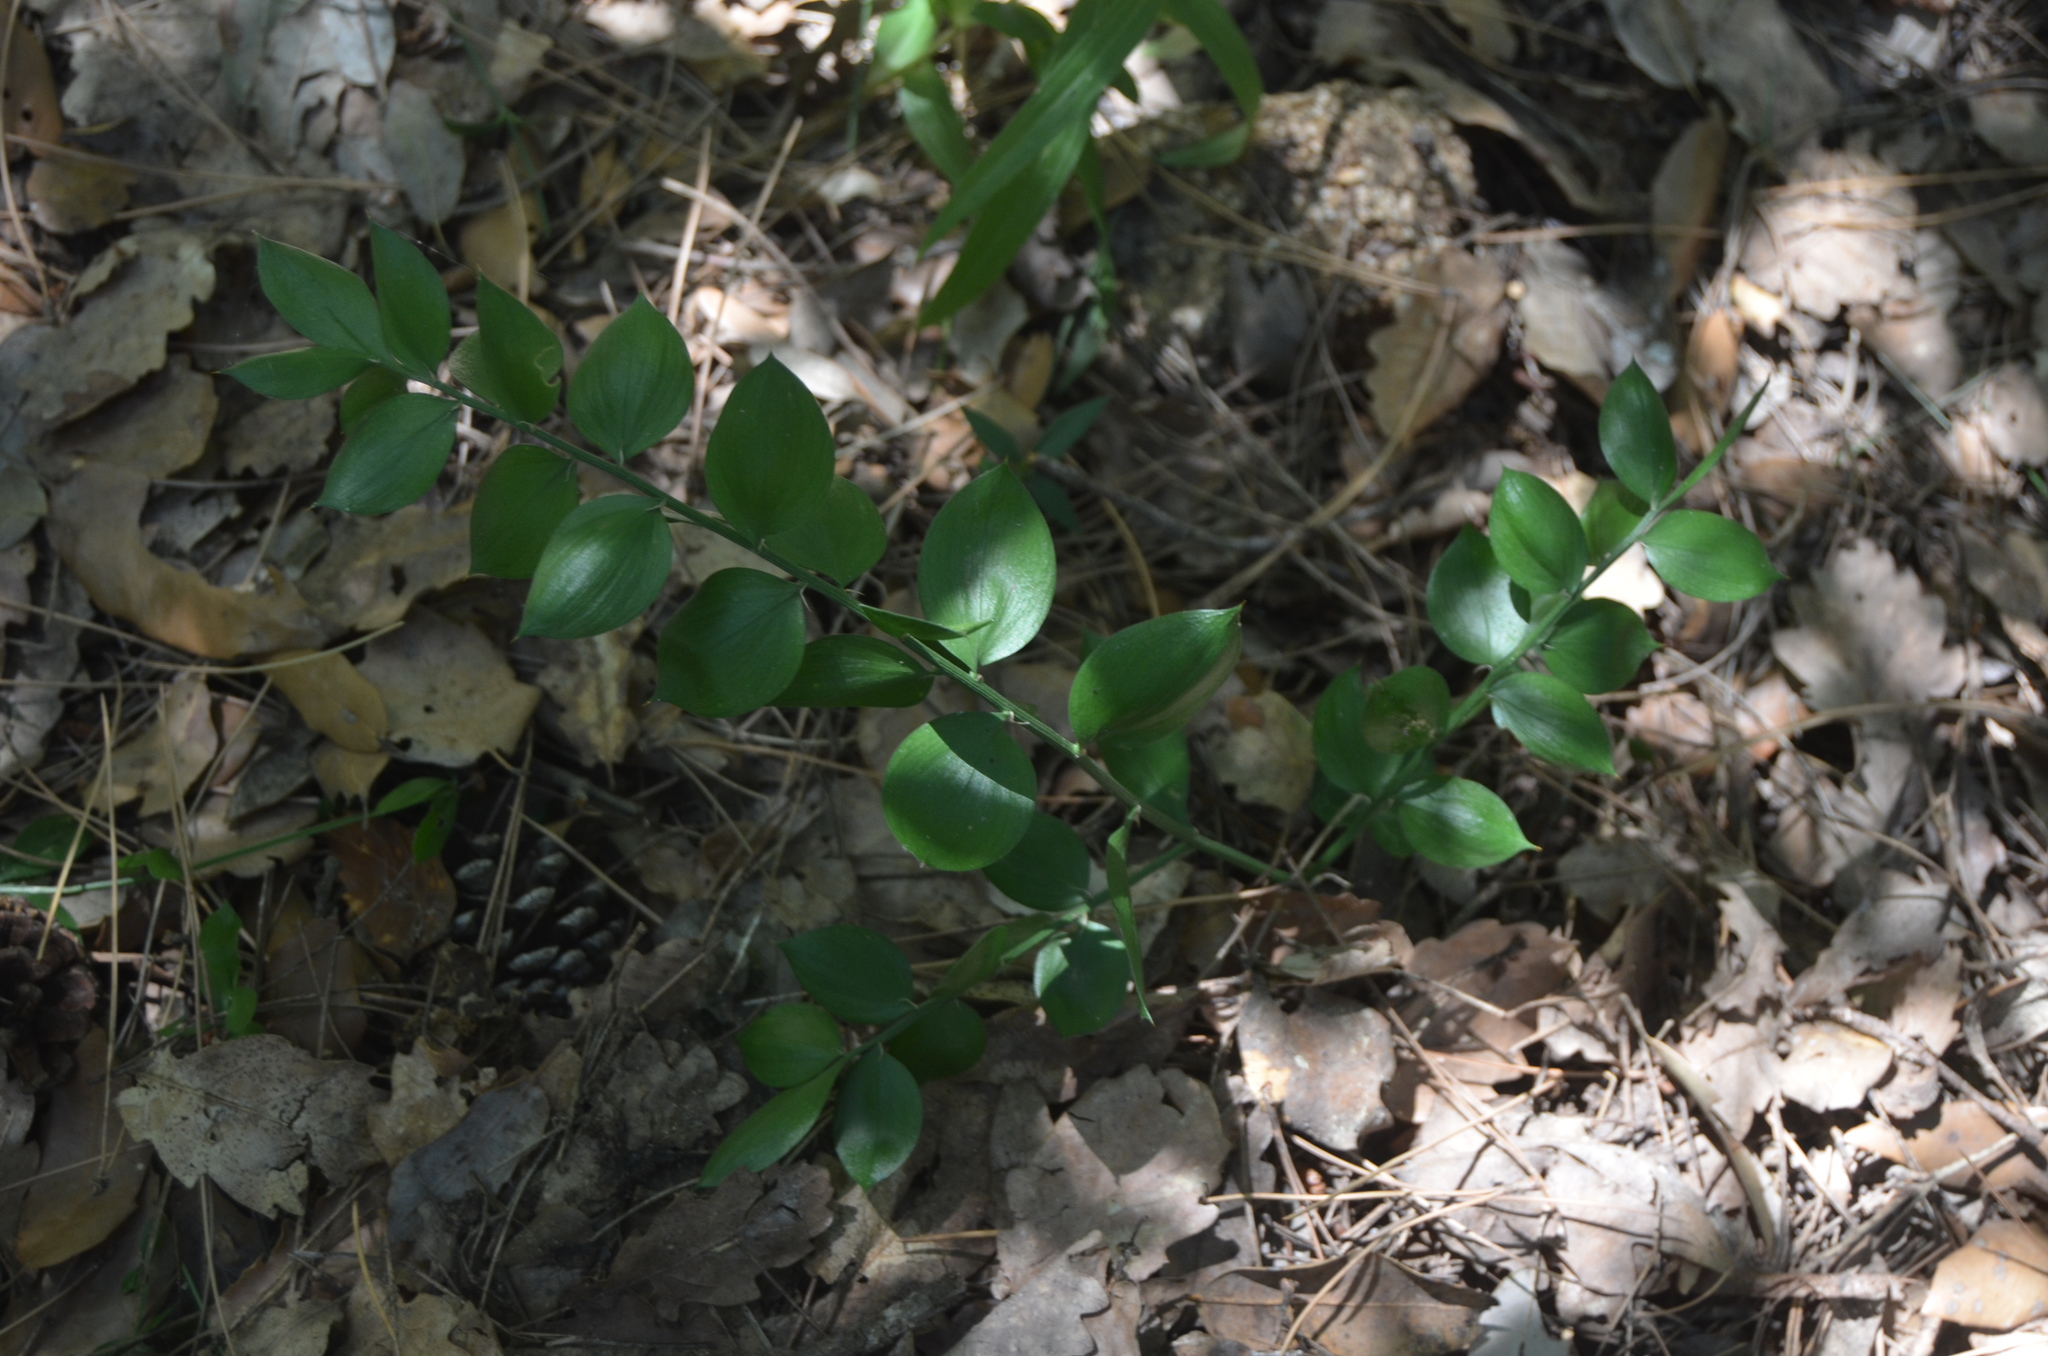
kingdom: Plantae
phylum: Tracheophyta
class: Liliopsida
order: Asparagales
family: Asparagaceae
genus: Ruscus
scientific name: Ruscus aculeatus
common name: Butcher's-broom
